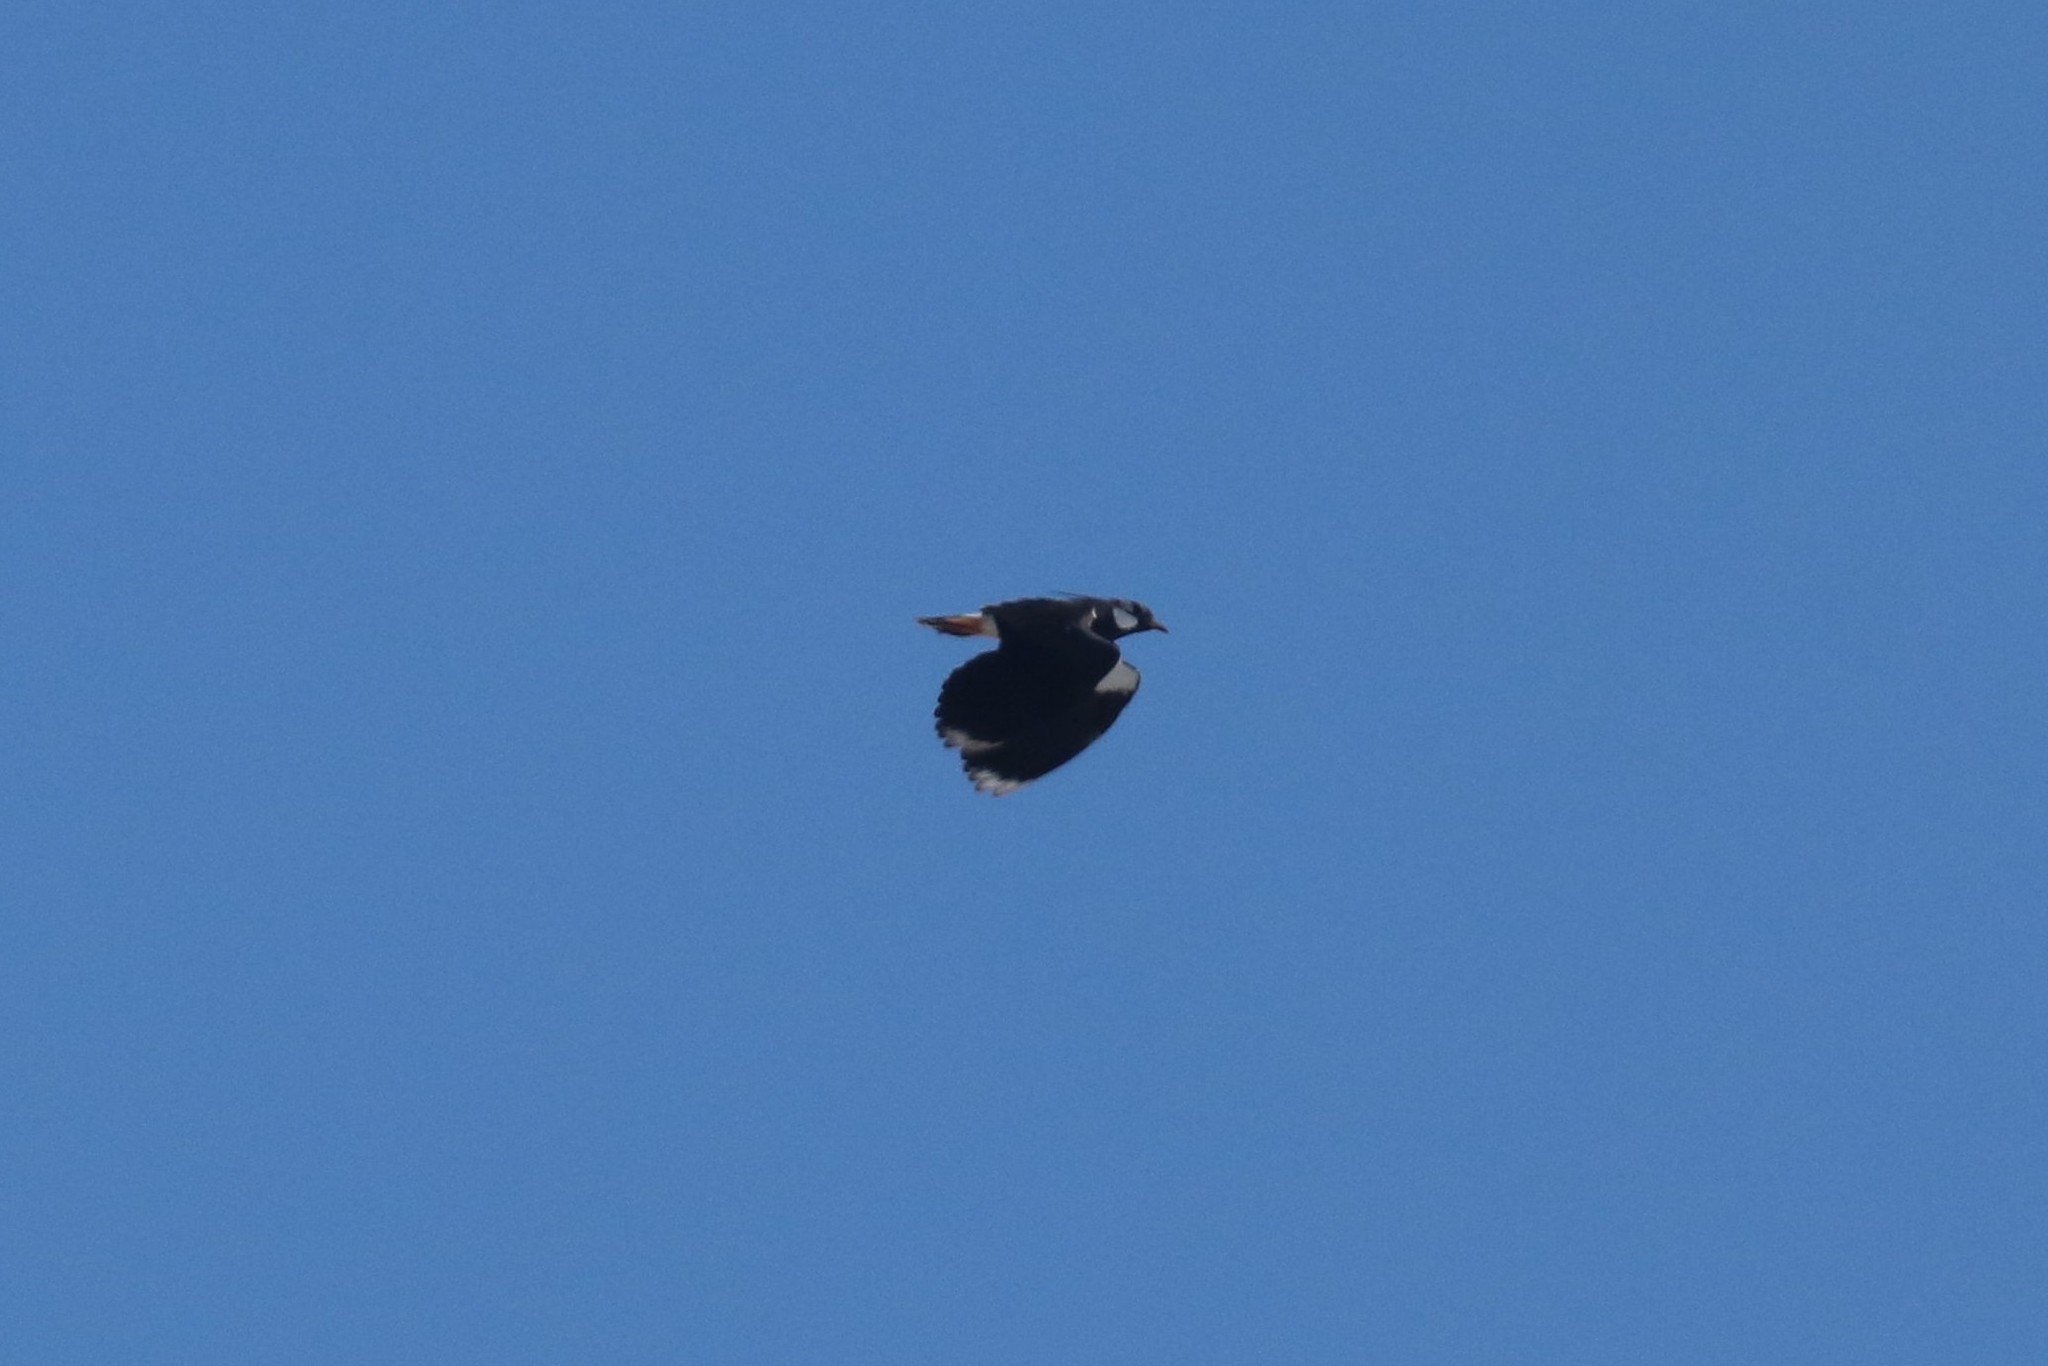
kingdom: Animalia
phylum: Chordata
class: Aves
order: Charadriiformes
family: Charadriidae
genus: Vanellus
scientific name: Vanellus vanellus
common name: Northern lapwing
